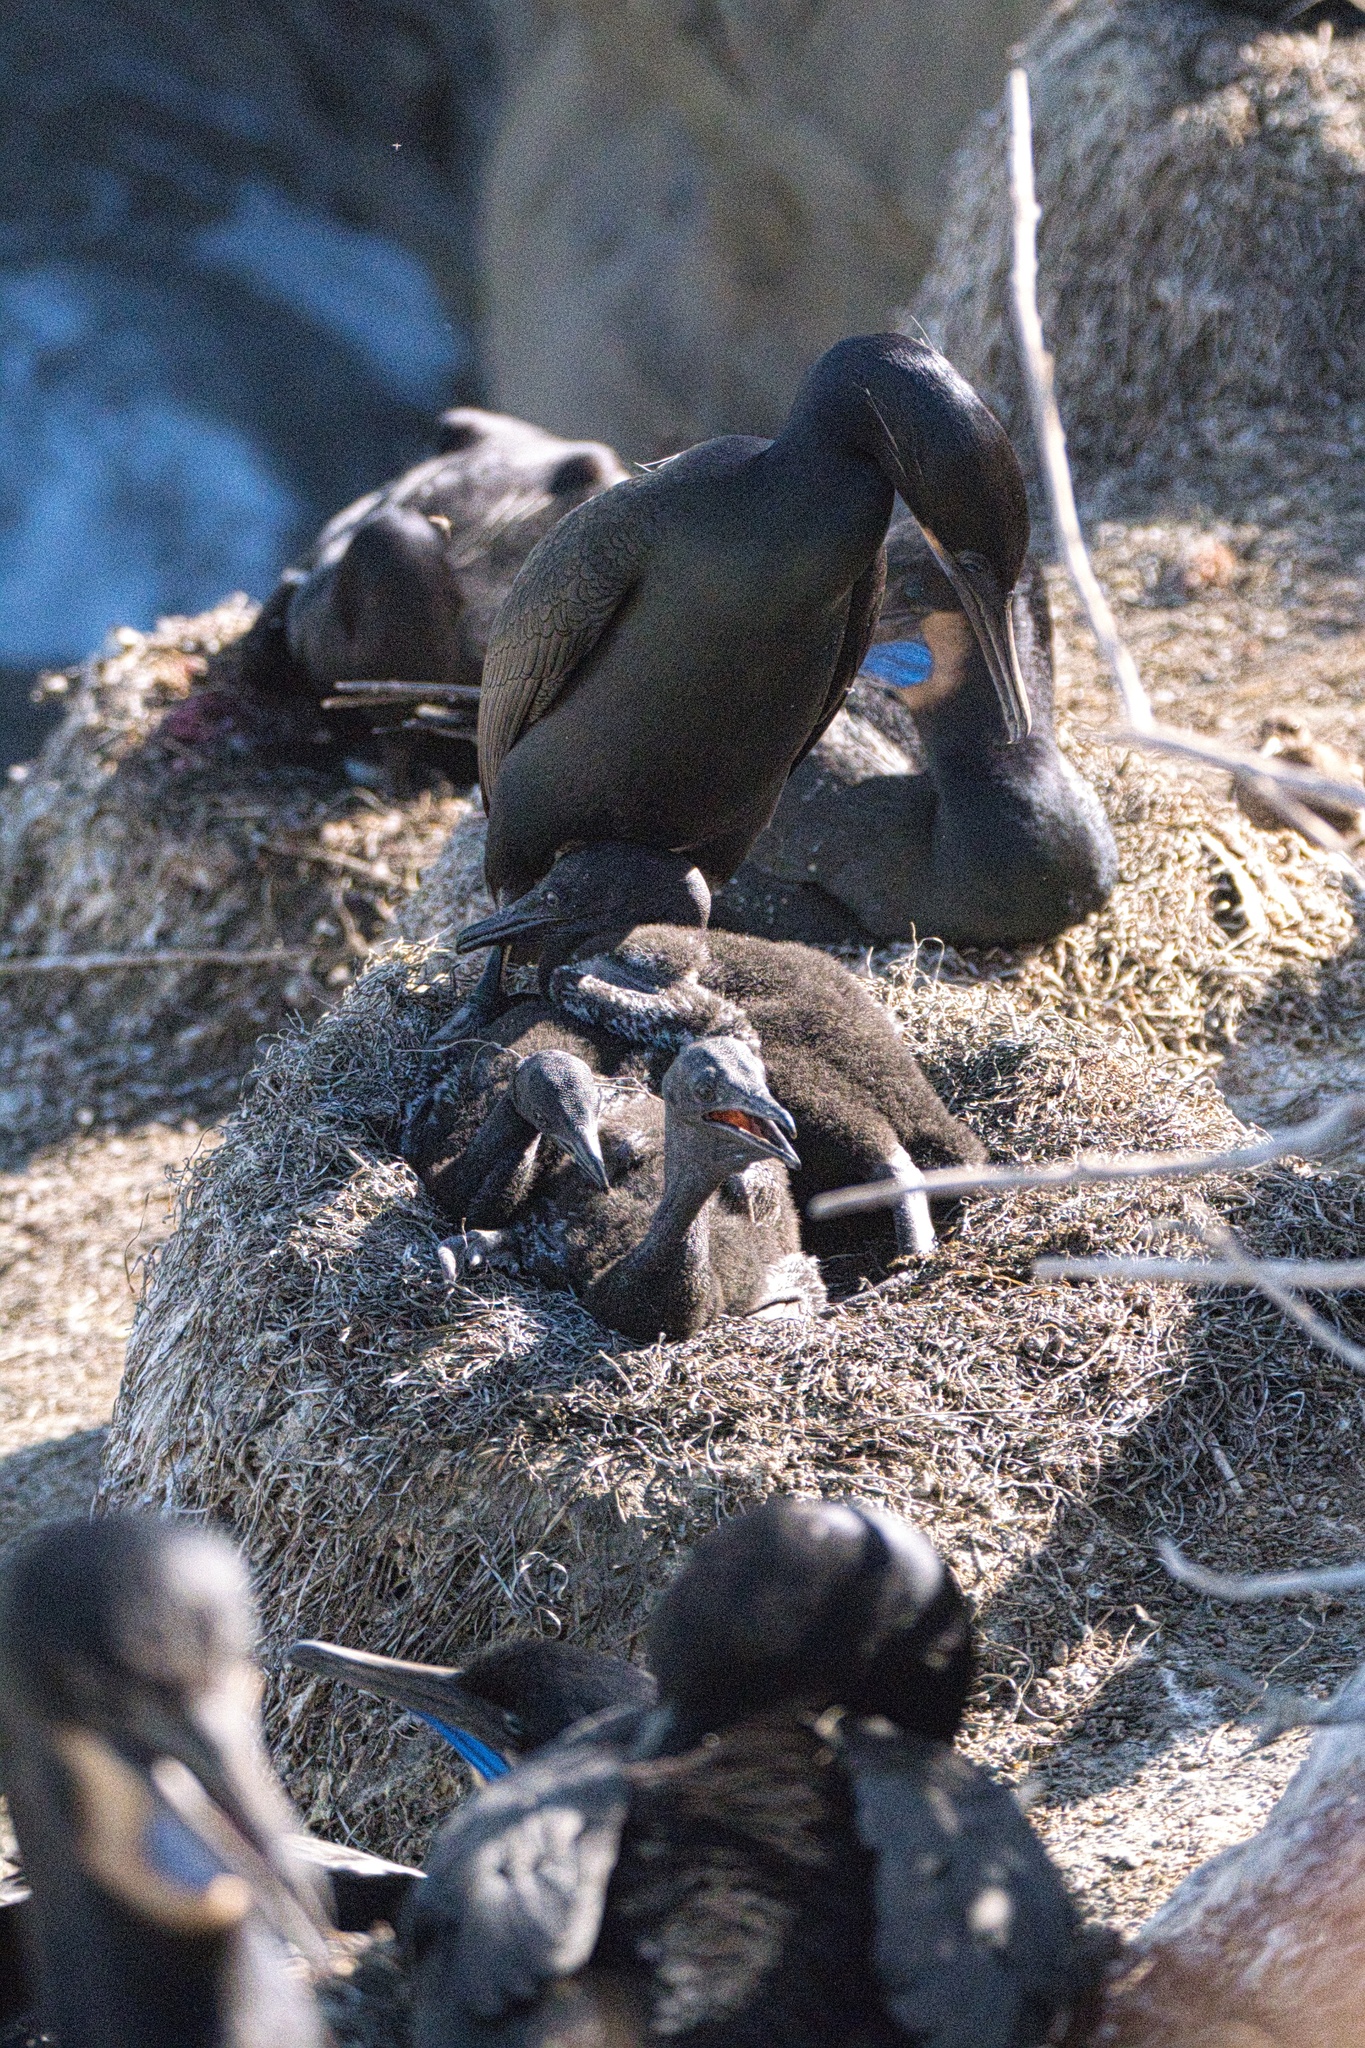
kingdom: Animalia
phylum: Chordata
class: Aves
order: Suliformes
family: Phalacrocoracidae
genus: Urile
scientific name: Urile penicillatus
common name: Brandt's cormorant
